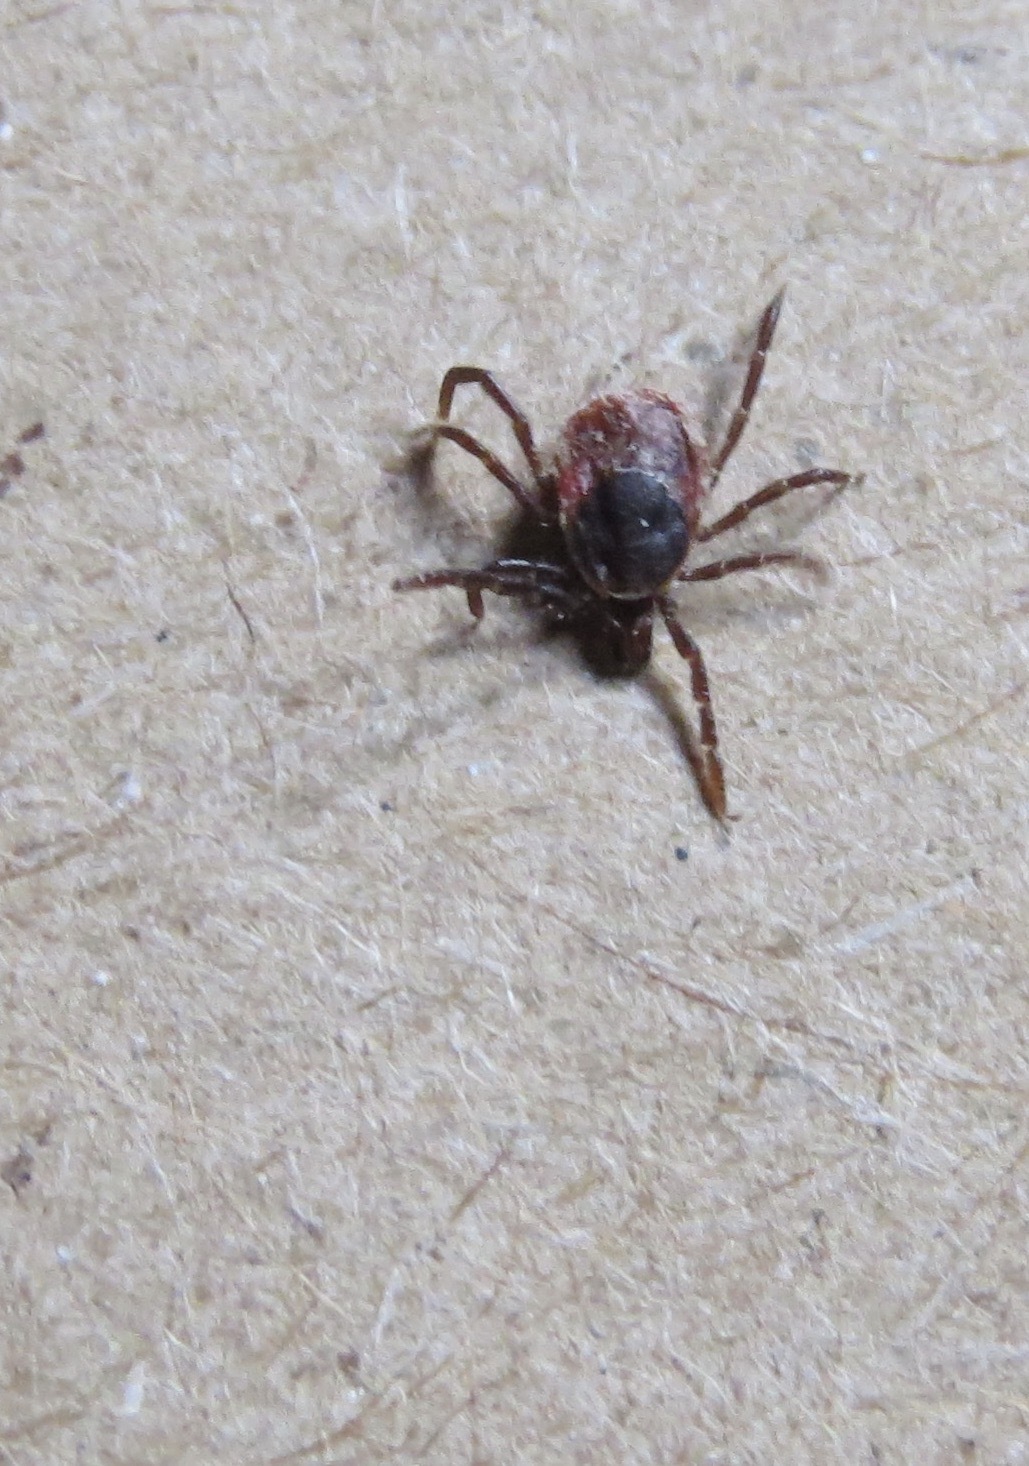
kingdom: Animalia
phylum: Arthropoda
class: Arachnida
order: Ixodida
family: Ixodidae
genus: Ixodes
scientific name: Ixodes pacificus
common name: California black-legged tick
